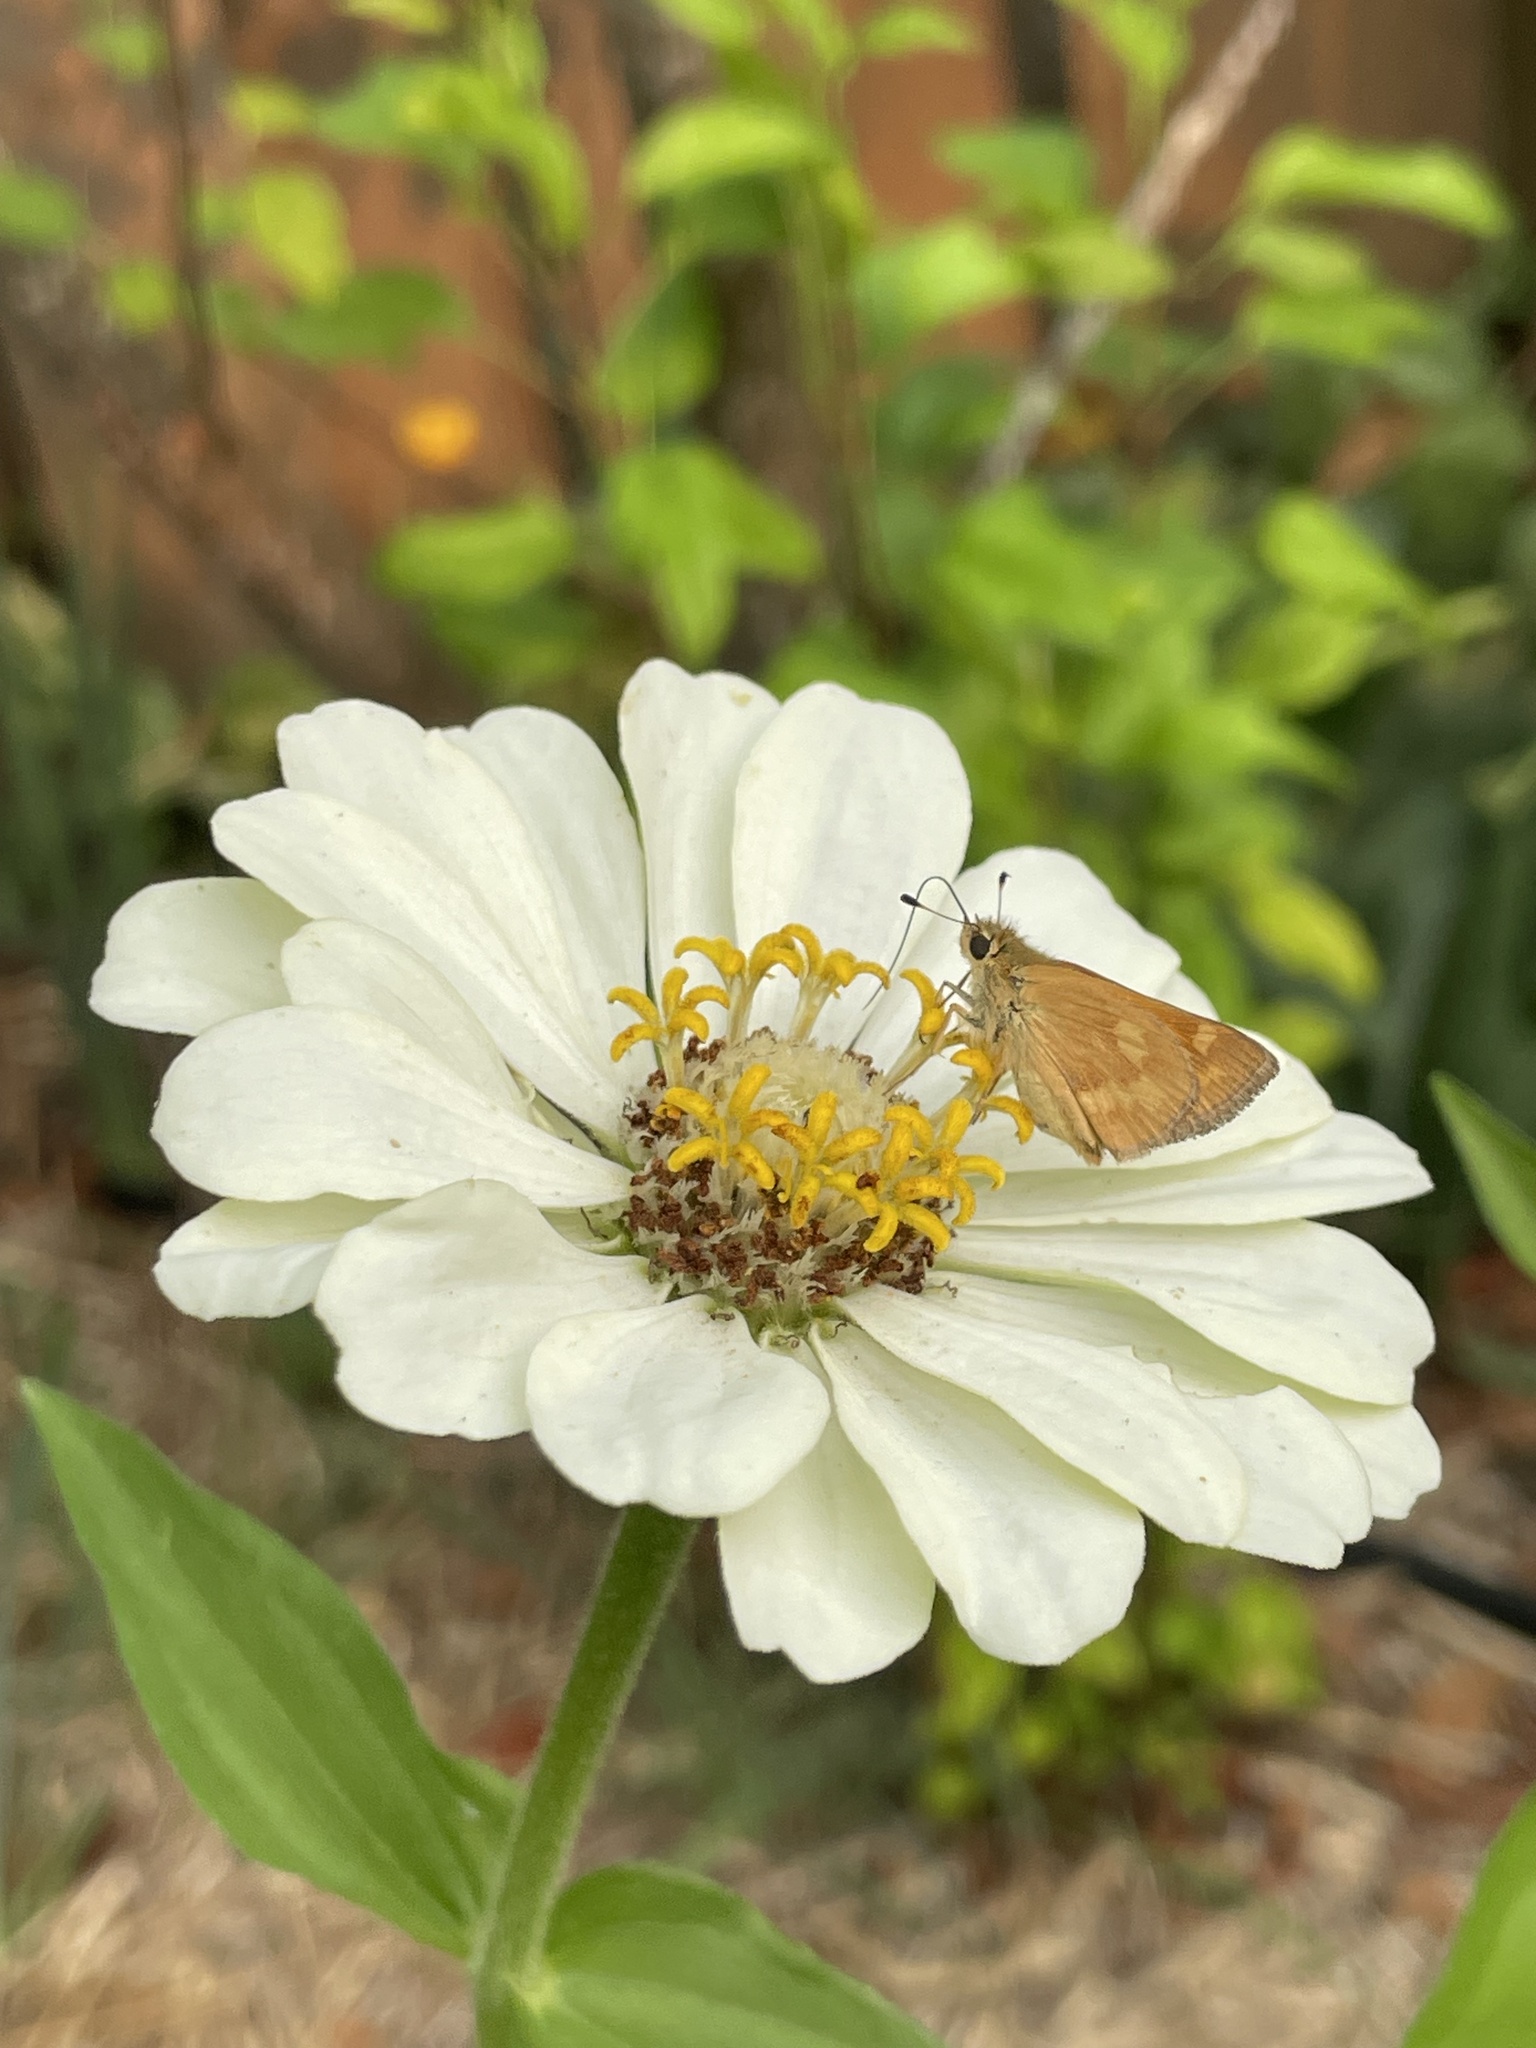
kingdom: Animalia
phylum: Arthropoda
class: Insecta
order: Lepidoptera
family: Hesperiidae
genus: Ochlodes
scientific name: Ochlodes sylvanoides
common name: Woodland skipper
